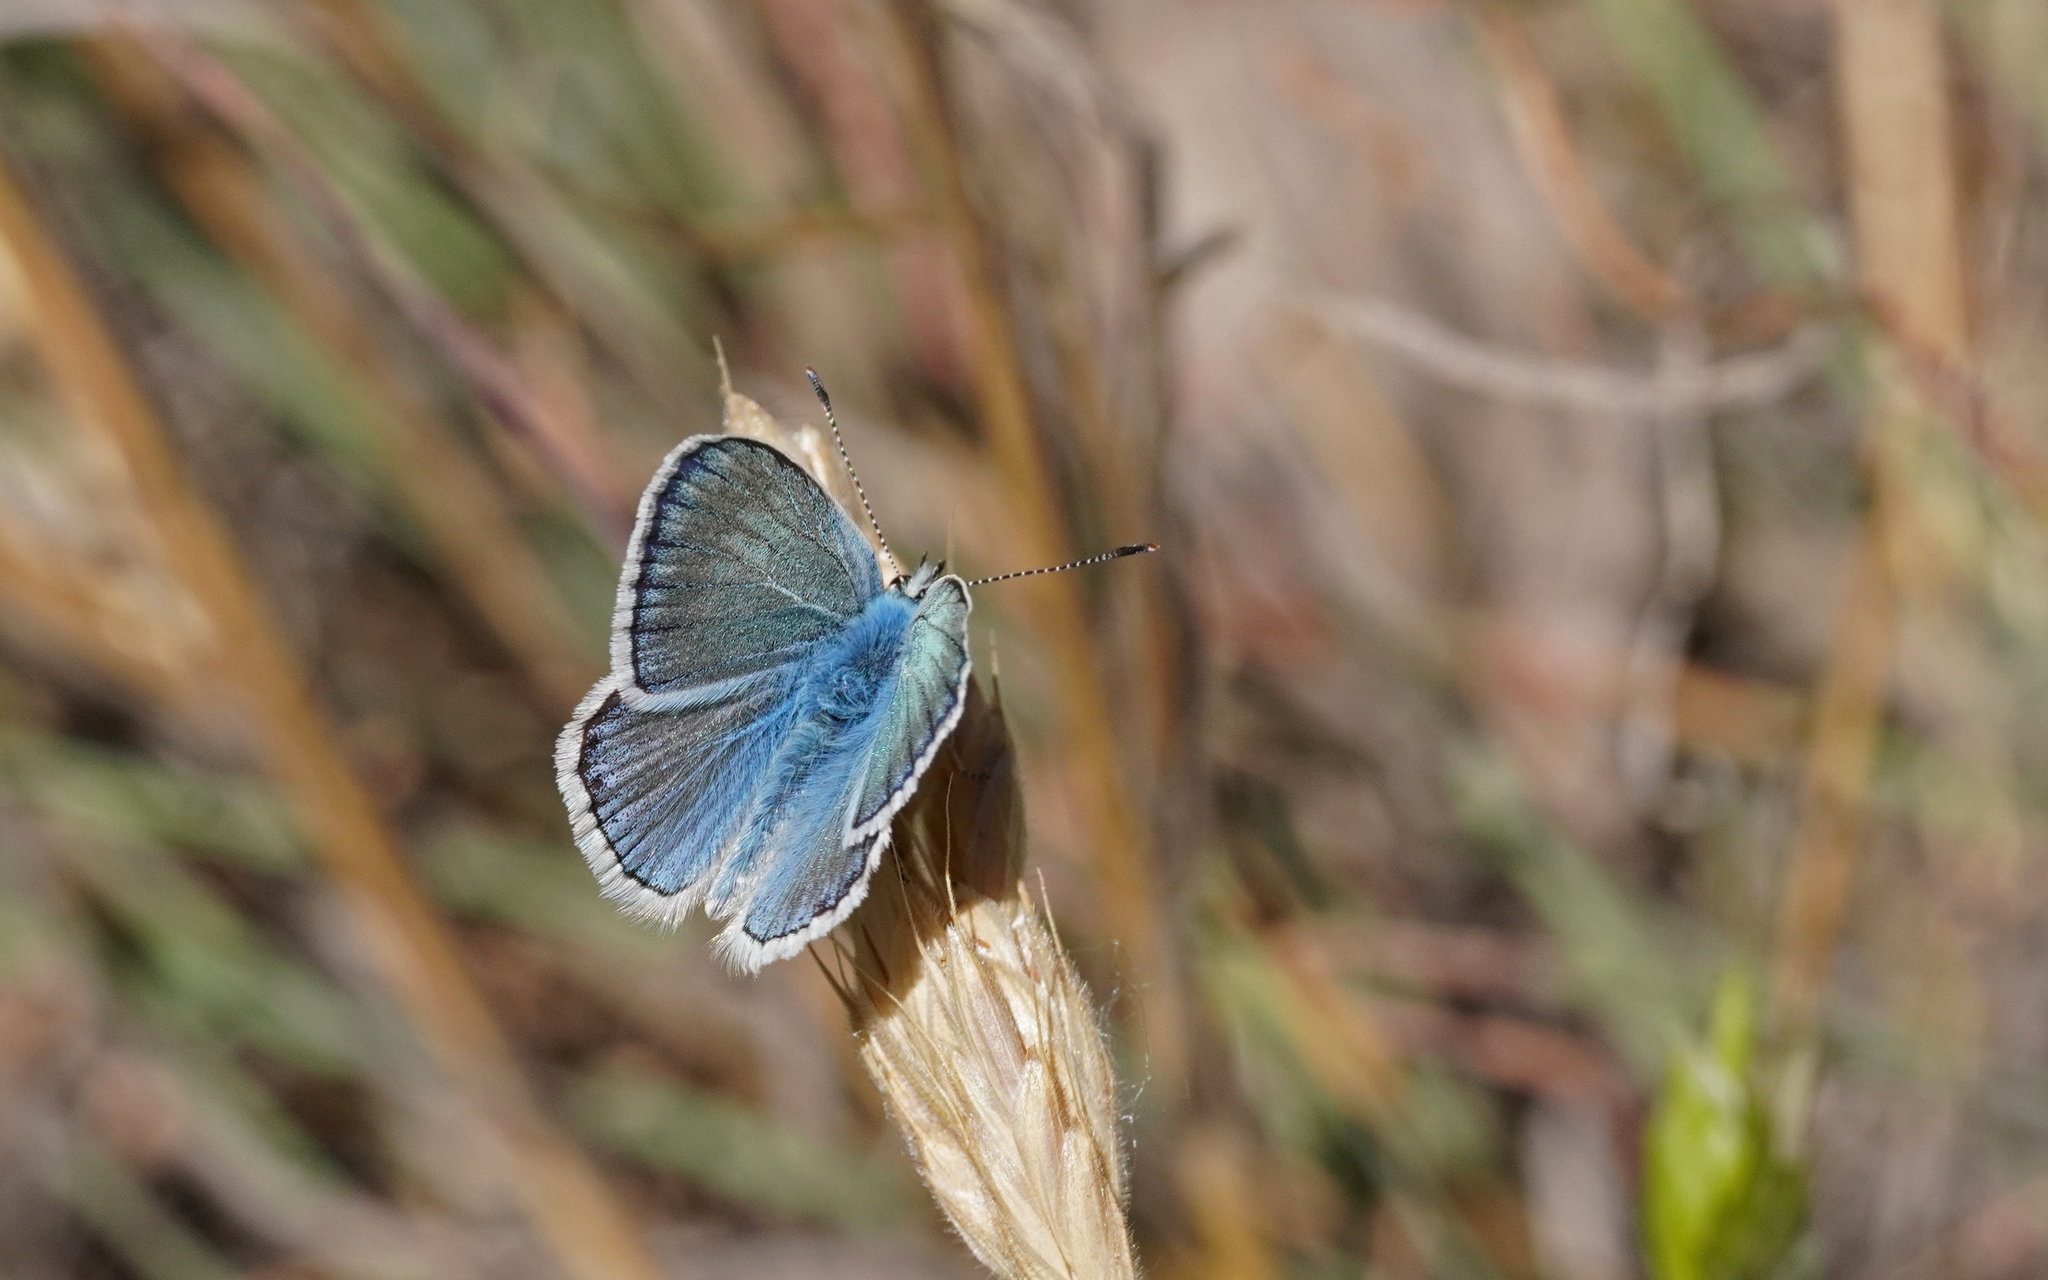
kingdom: Animalia
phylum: Arthropoda
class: Insecta
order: Lepidoptera
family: Lycaenidae
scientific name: Lycaenidae
